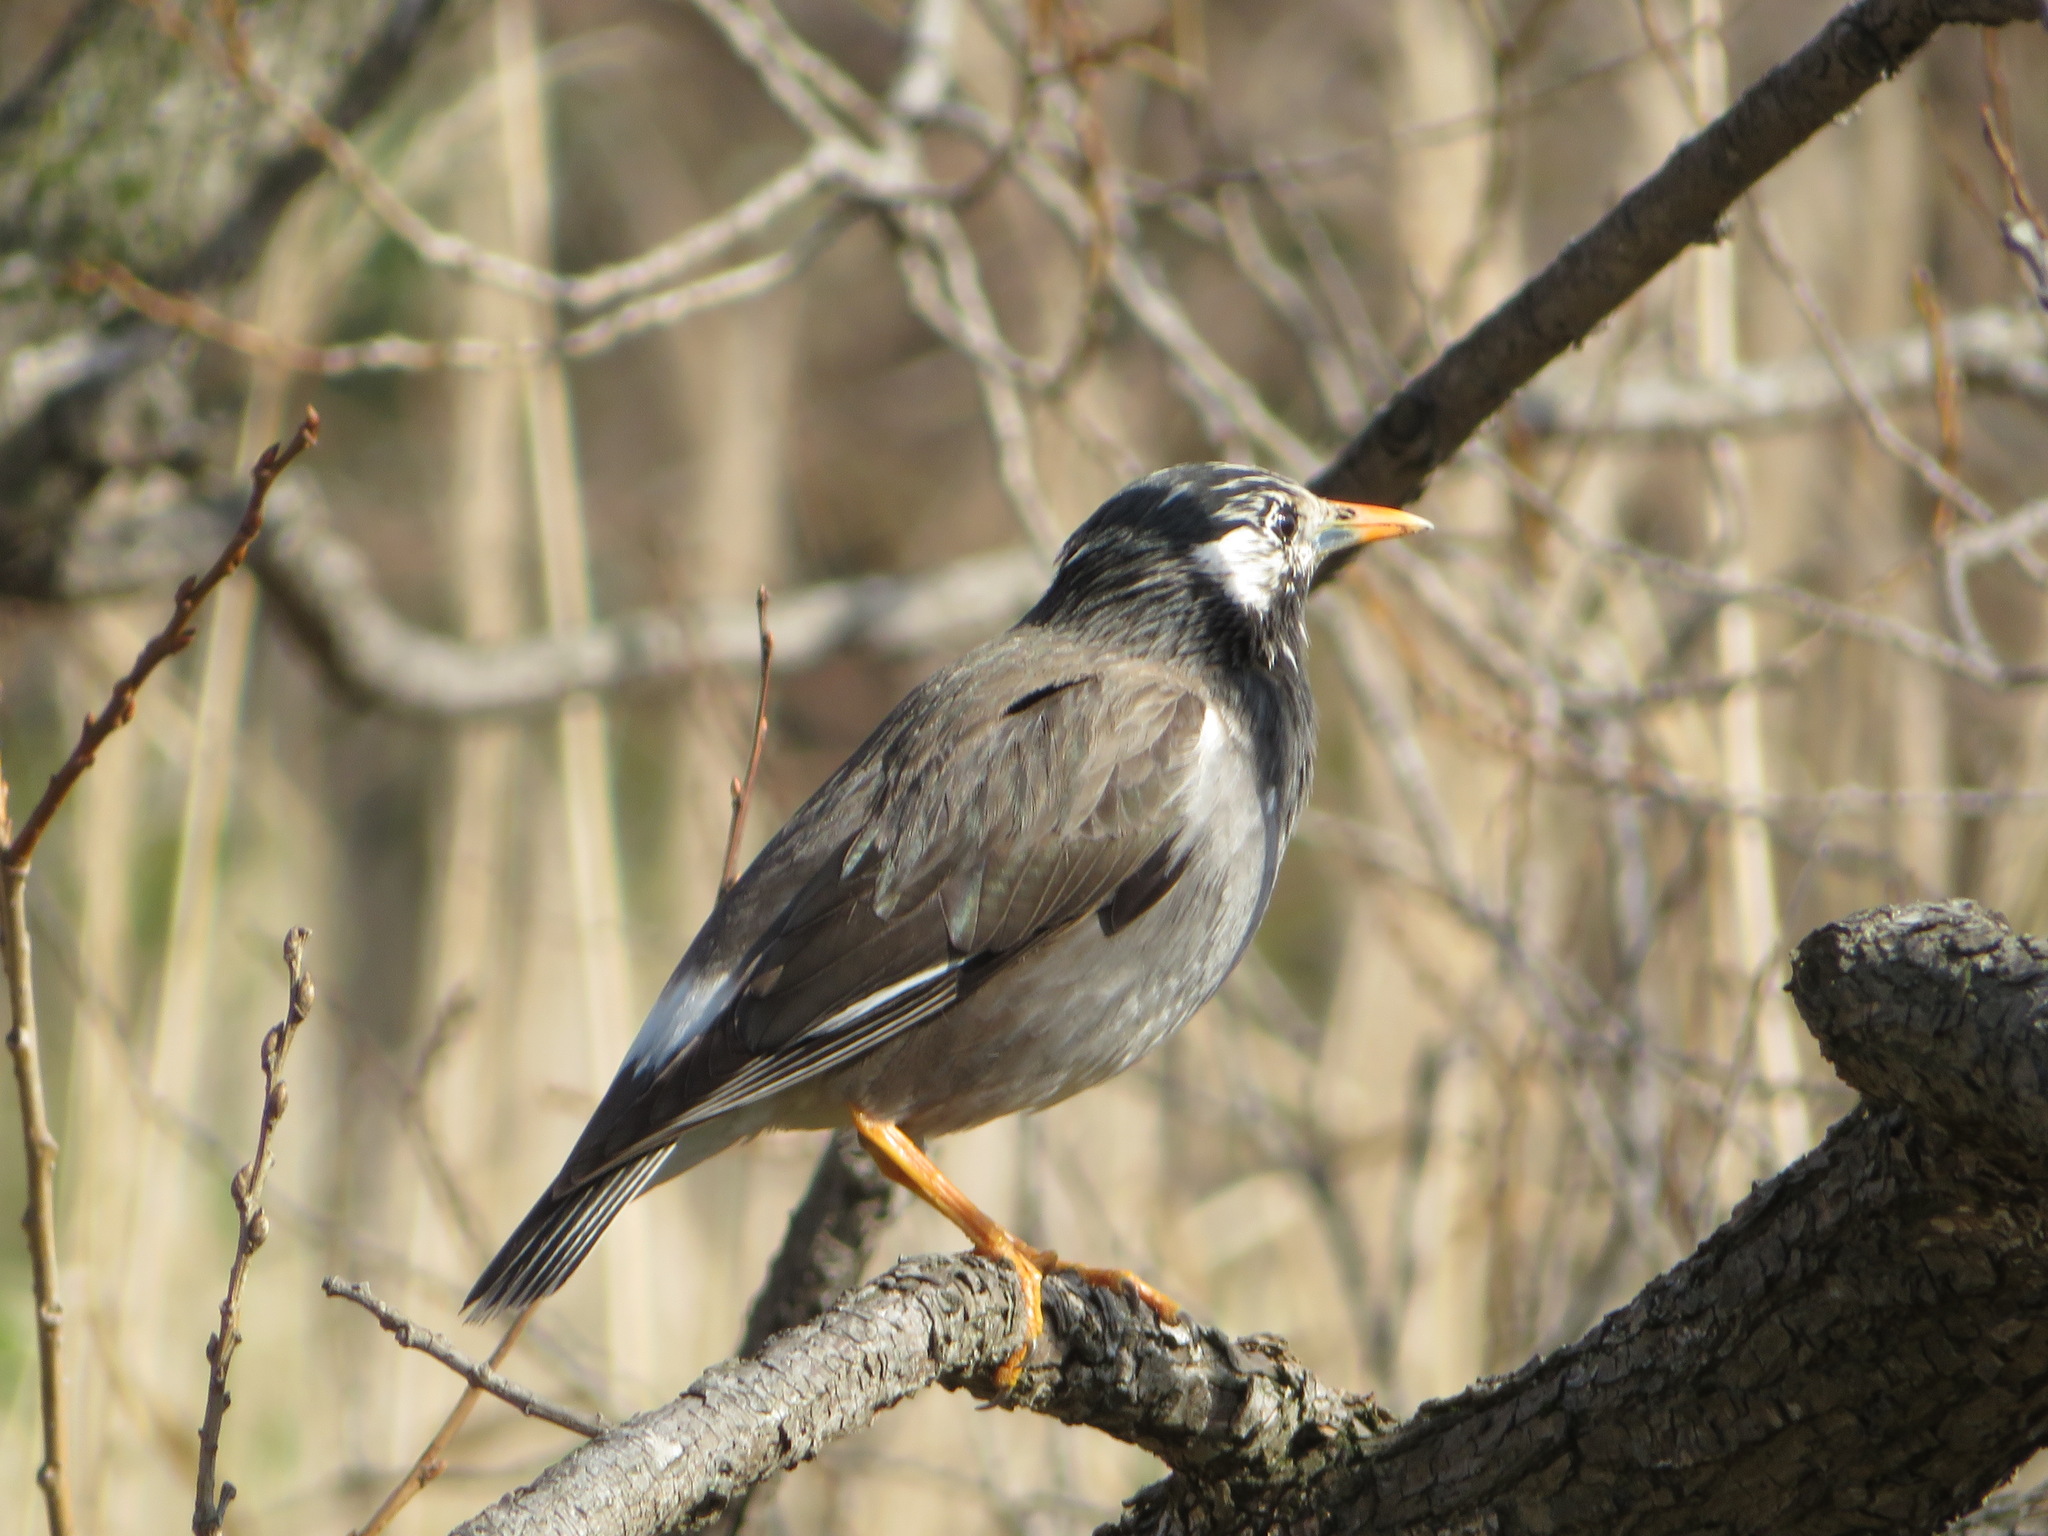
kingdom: Animalia
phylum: Chordata
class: Aves
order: Passeriformes
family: Sturnidae
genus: Spodiopsar
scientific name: Spodiopsar cineraceus
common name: White-cheeked starling
